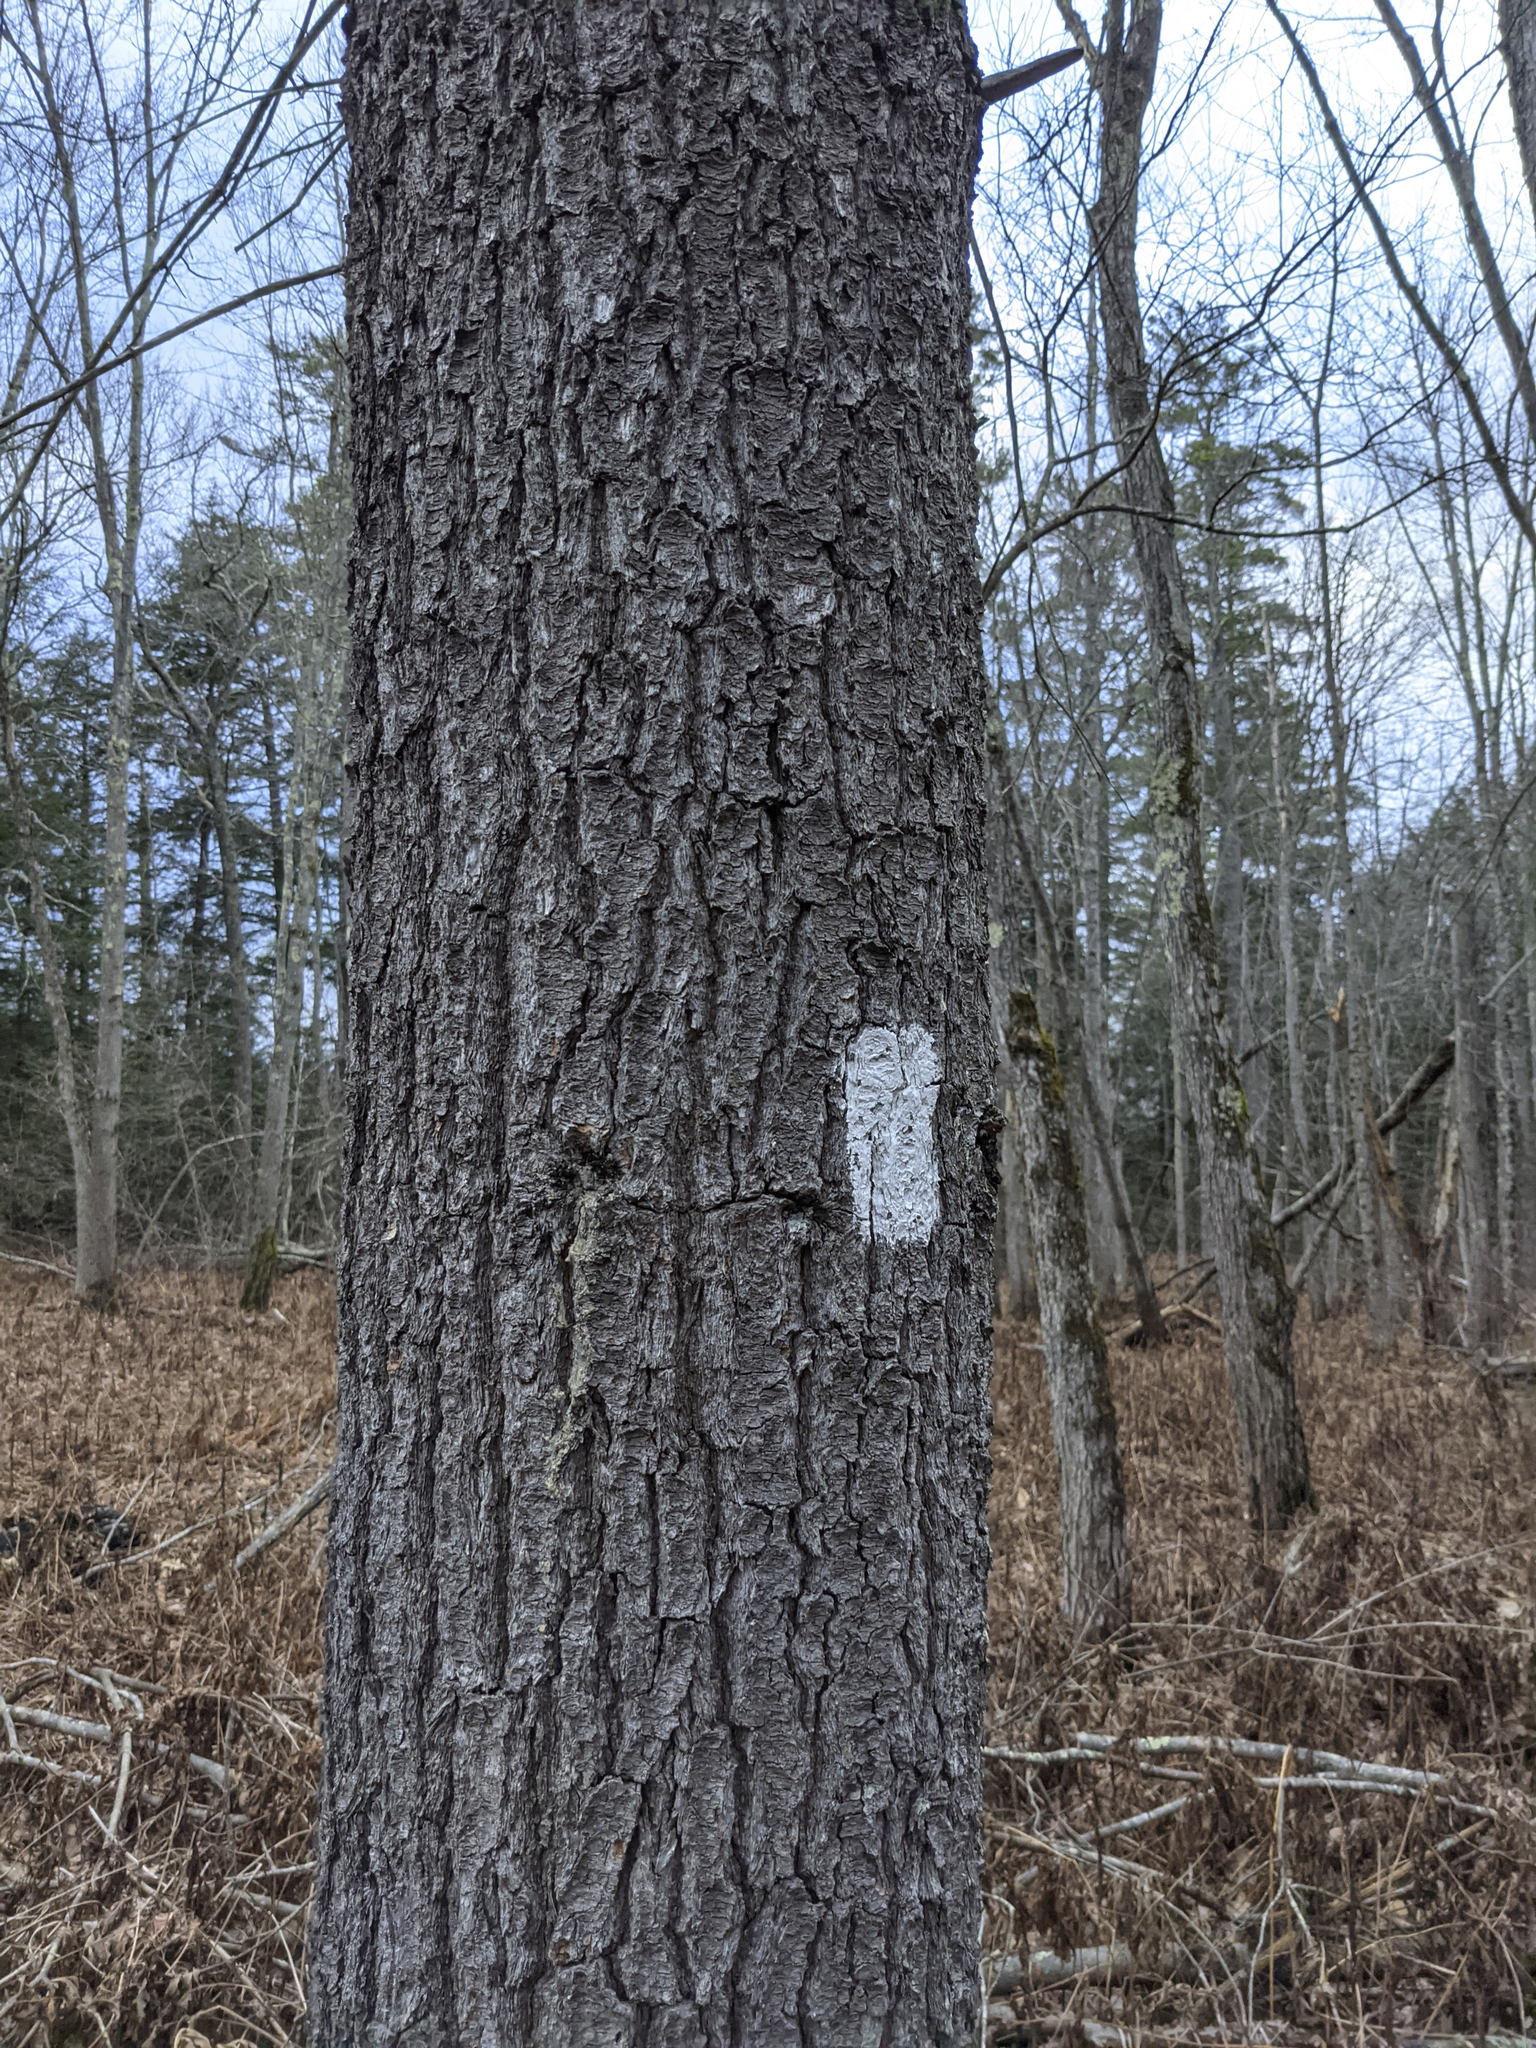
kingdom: Plantae
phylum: Tracheophyta
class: Pinopsida
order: Pinales
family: Pinaceae
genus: Pinus
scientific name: Pinus strobus
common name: Weymouth pine
